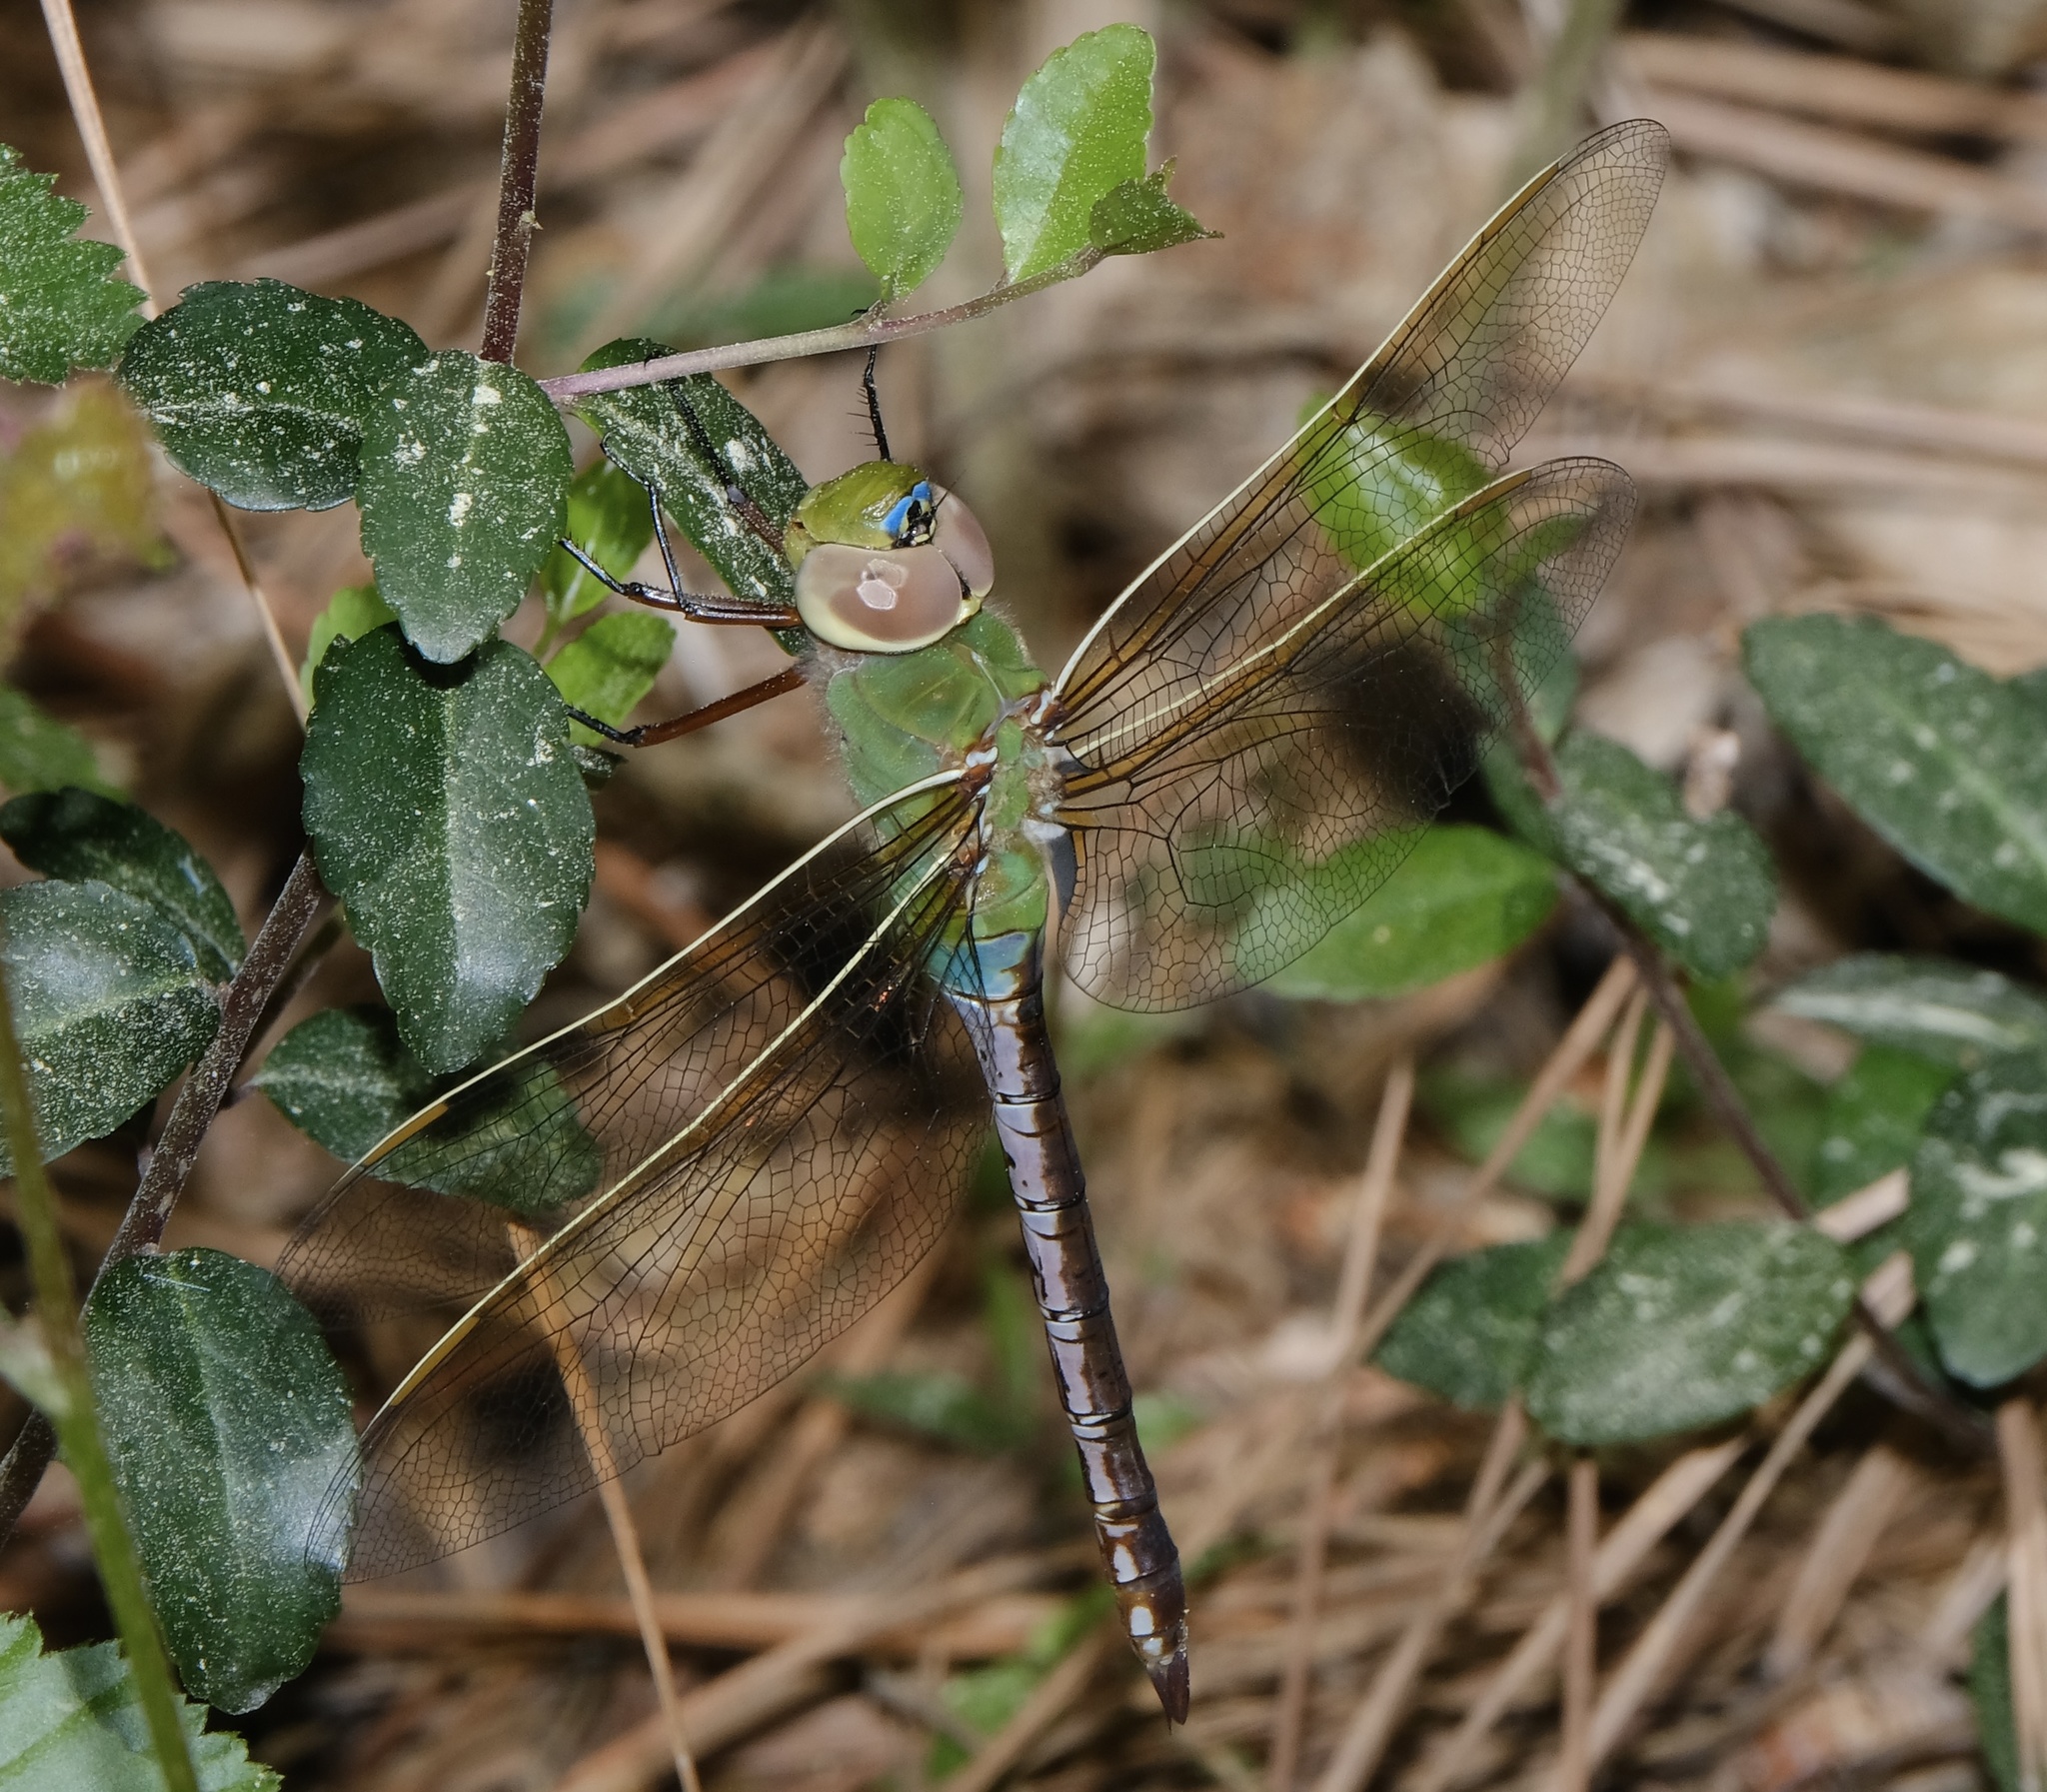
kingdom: Animalia
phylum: Arthropoda
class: Insecta
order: Odonata
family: Aeshnidae
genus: Anax
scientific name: Anax junius
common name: Common green darner
